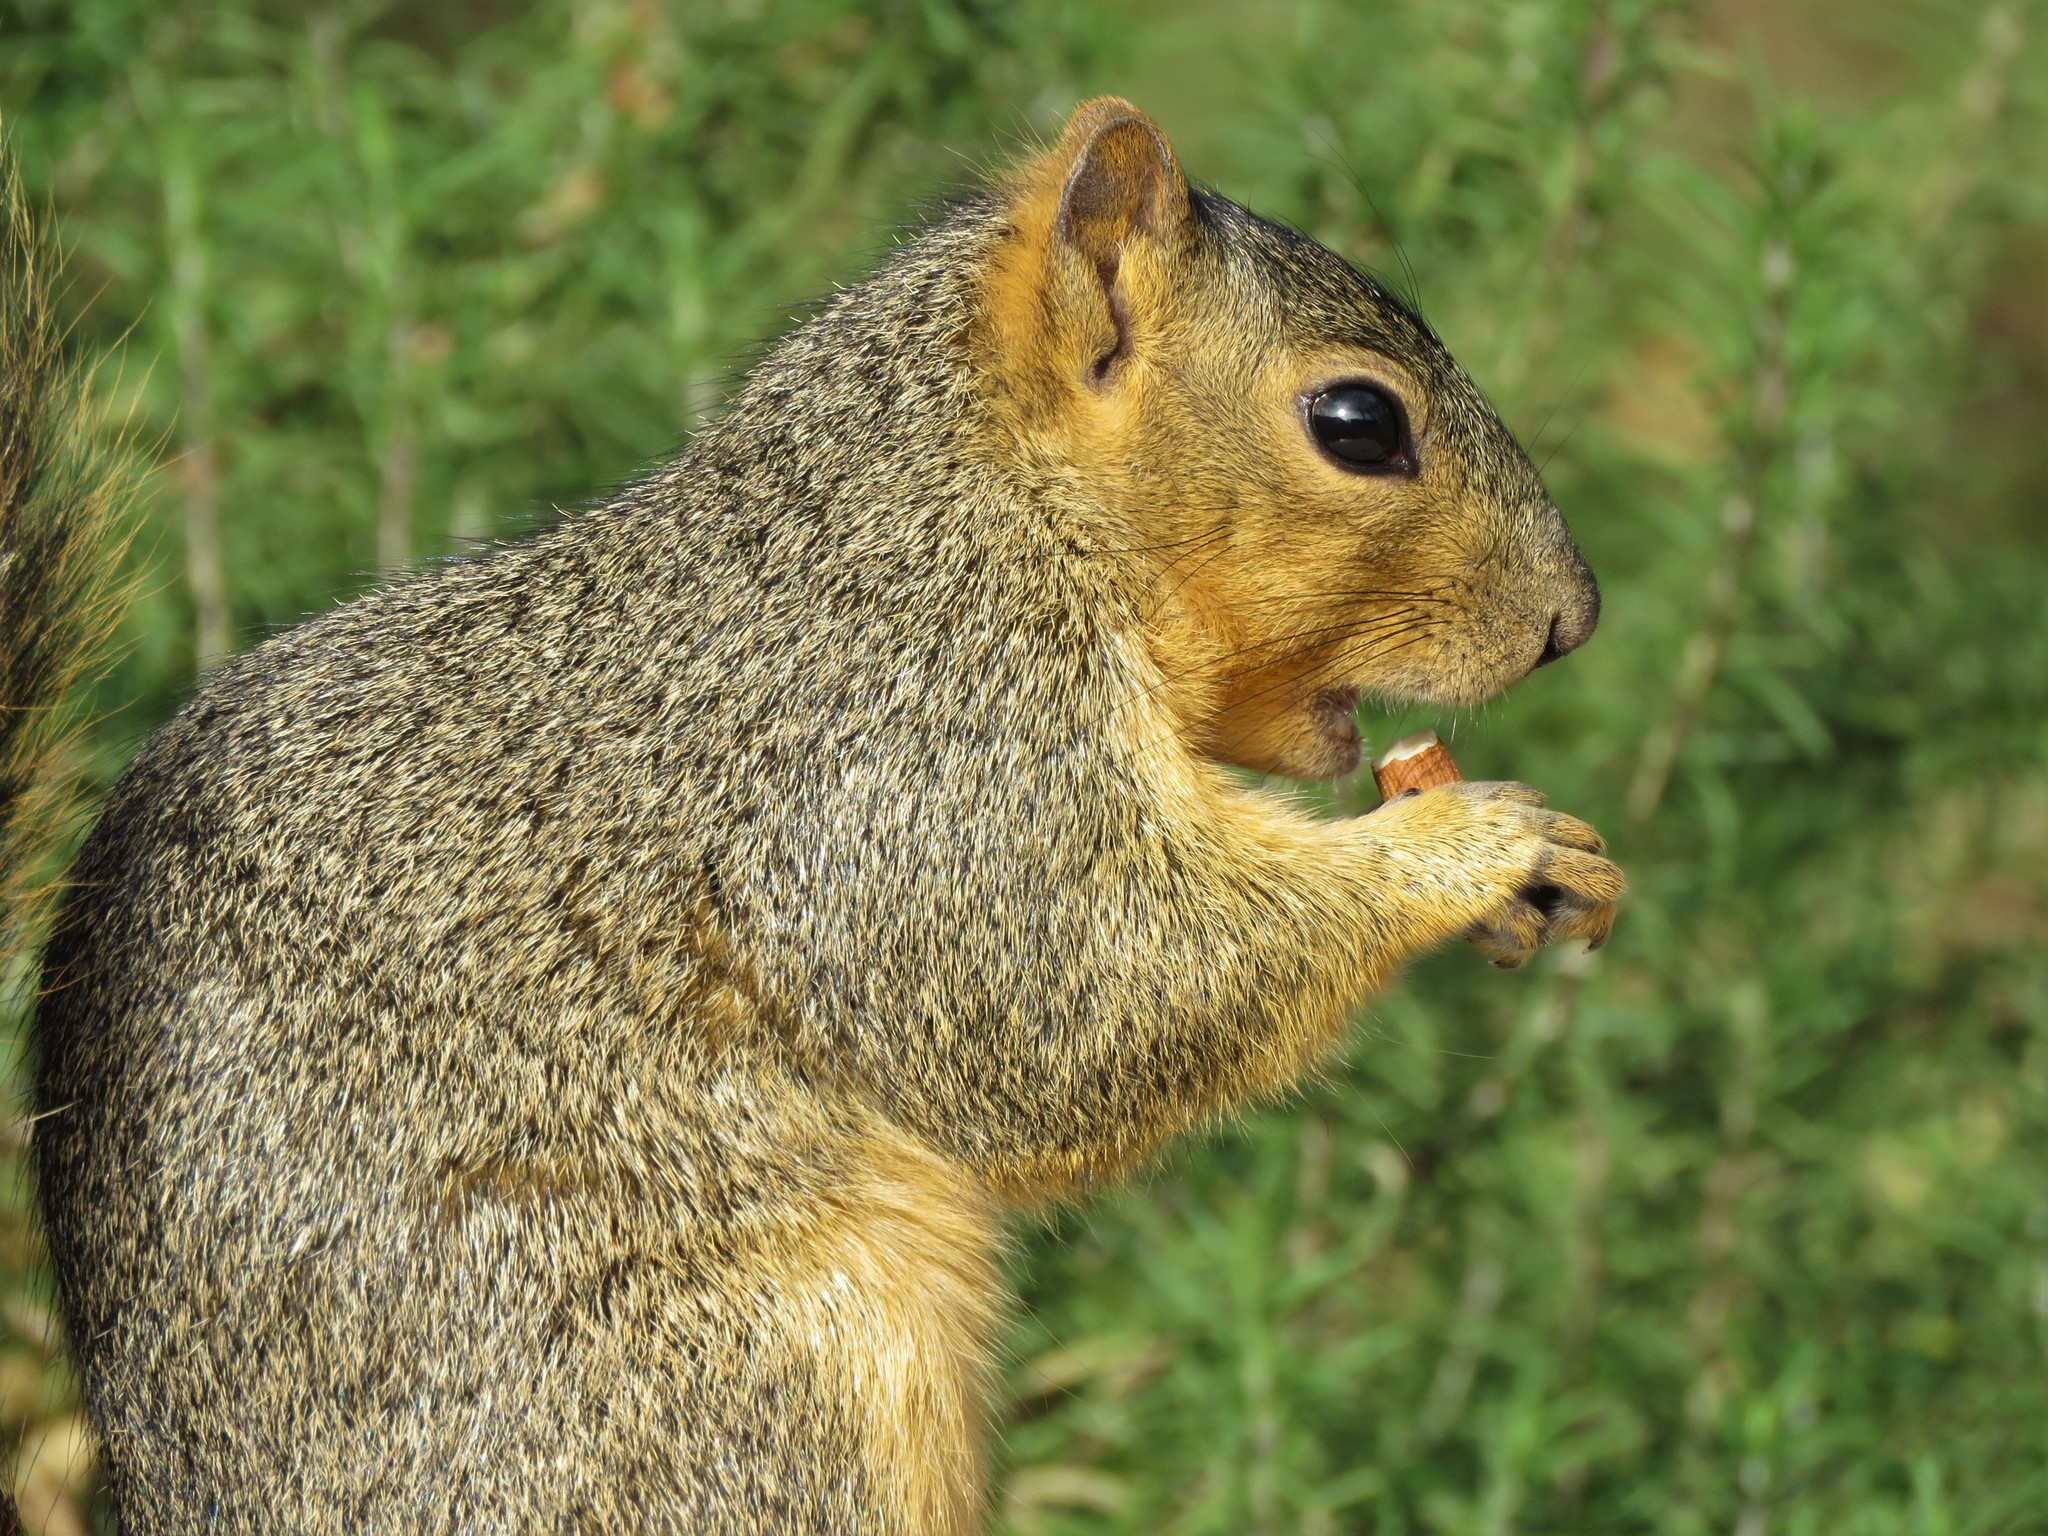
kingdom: Animalia
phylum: Chordata
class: Mammalia
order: Rodentia
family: Sciuridae
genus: Sciurus
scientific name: Sciurus niger
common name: Fox squirrel
